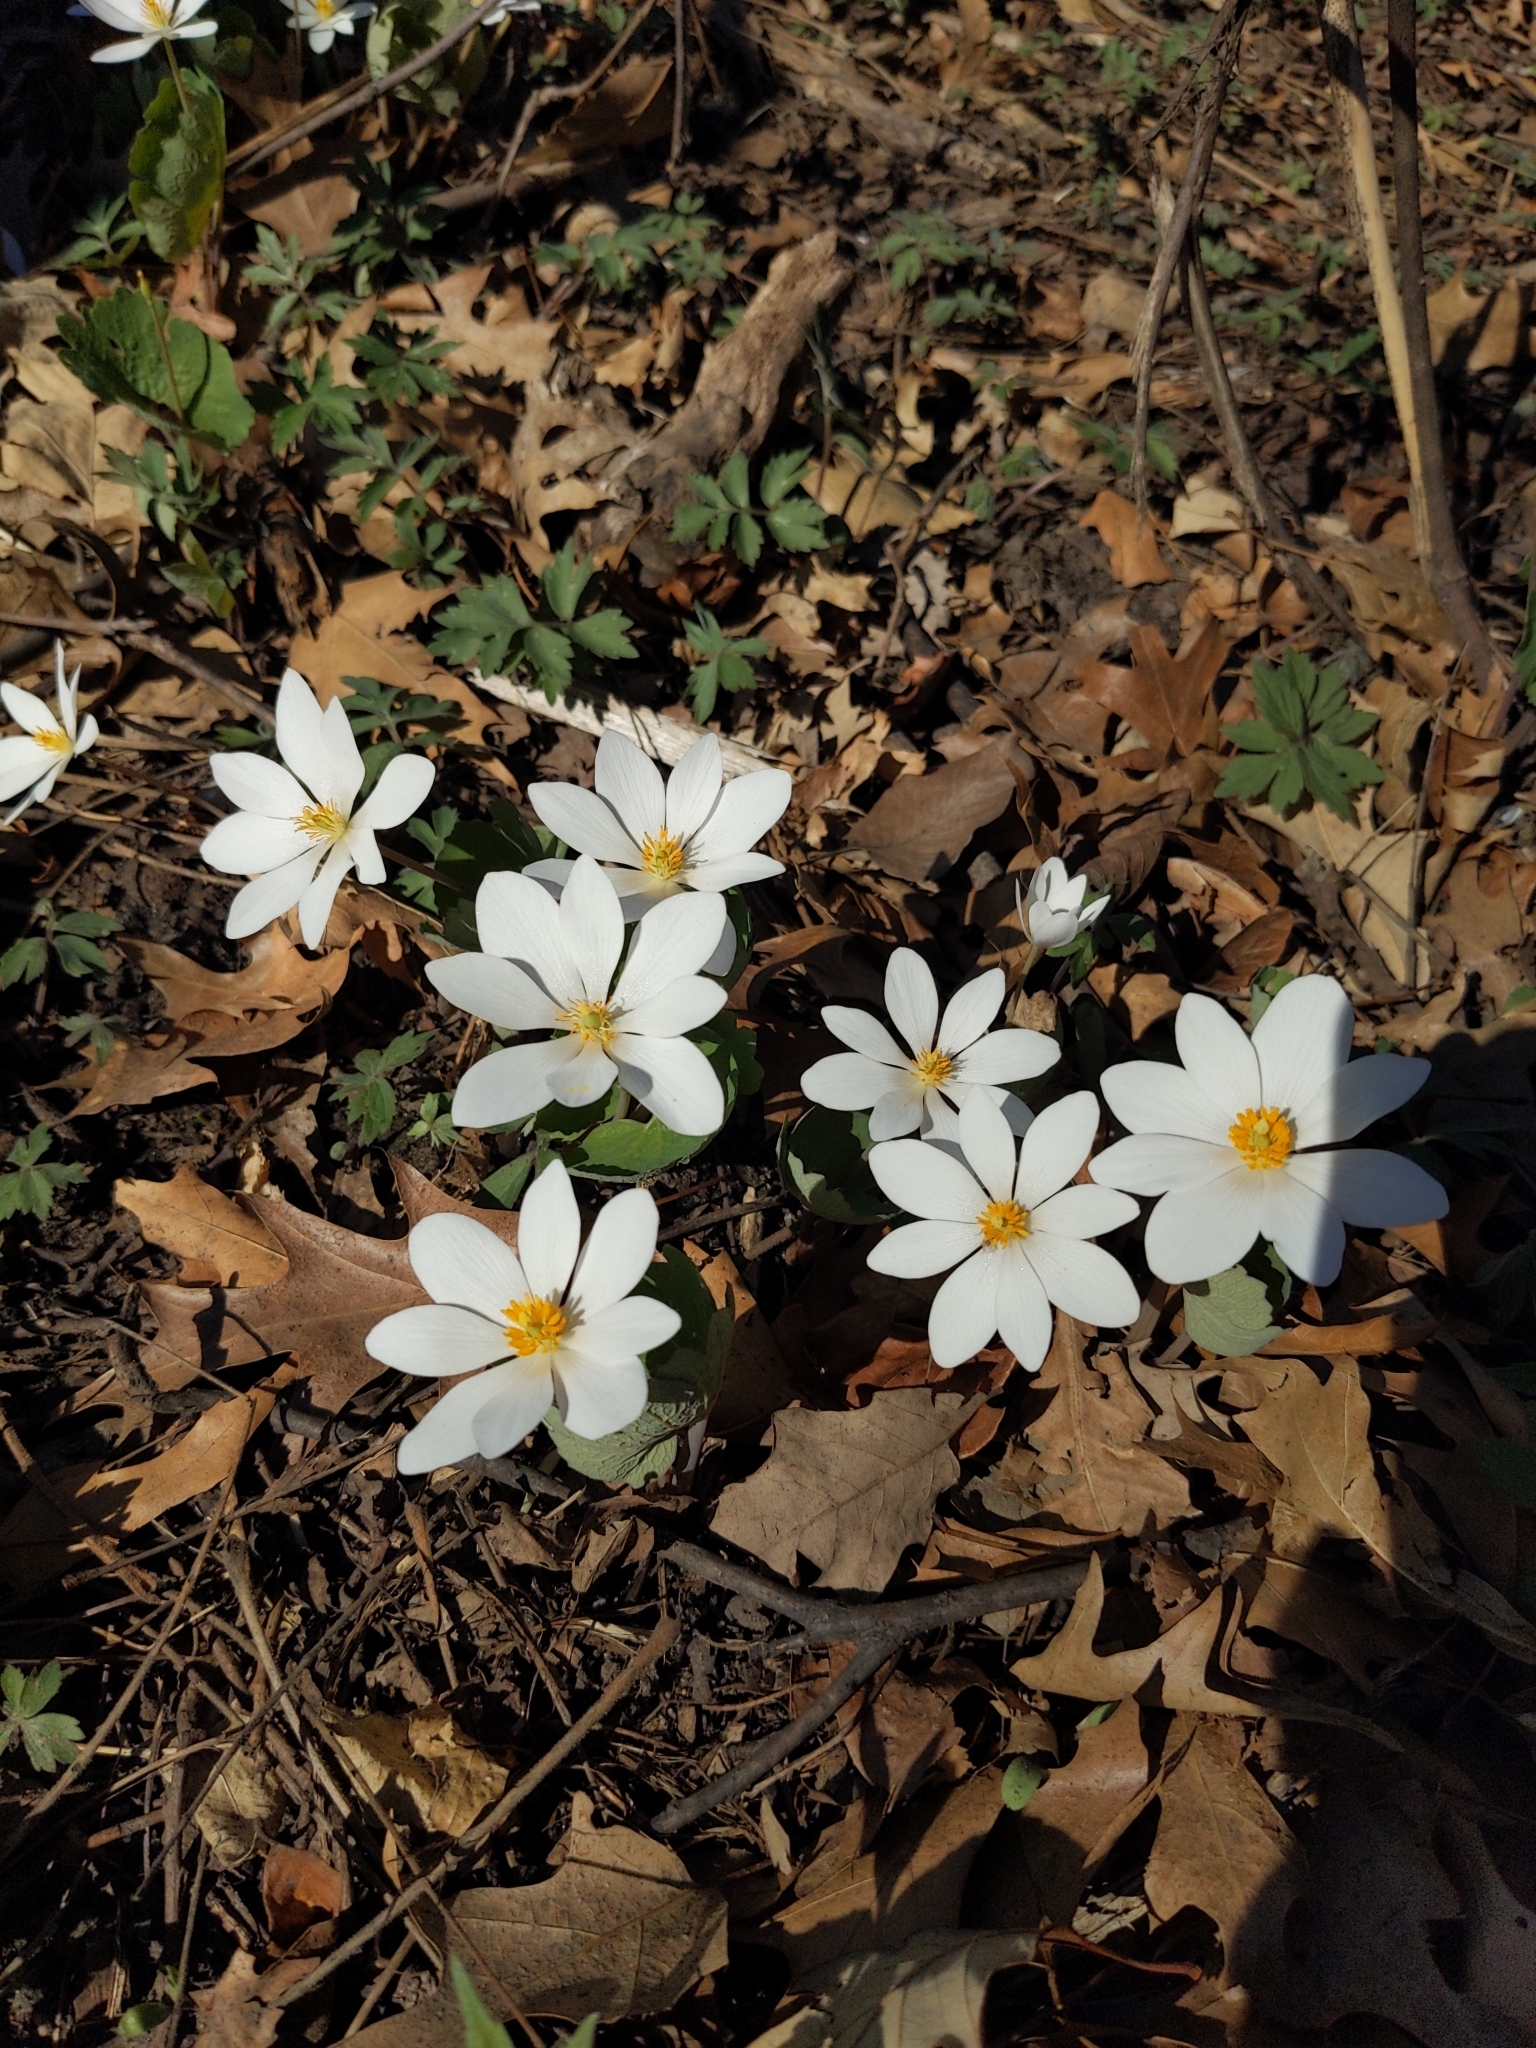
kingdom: Plantae
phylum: Tracheophyta
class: Magnoliopsida
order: Ranunculales
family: Papaveraceae
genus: Sanguinaria
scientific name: Sanguinaria canadensis
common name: Bloodroot
